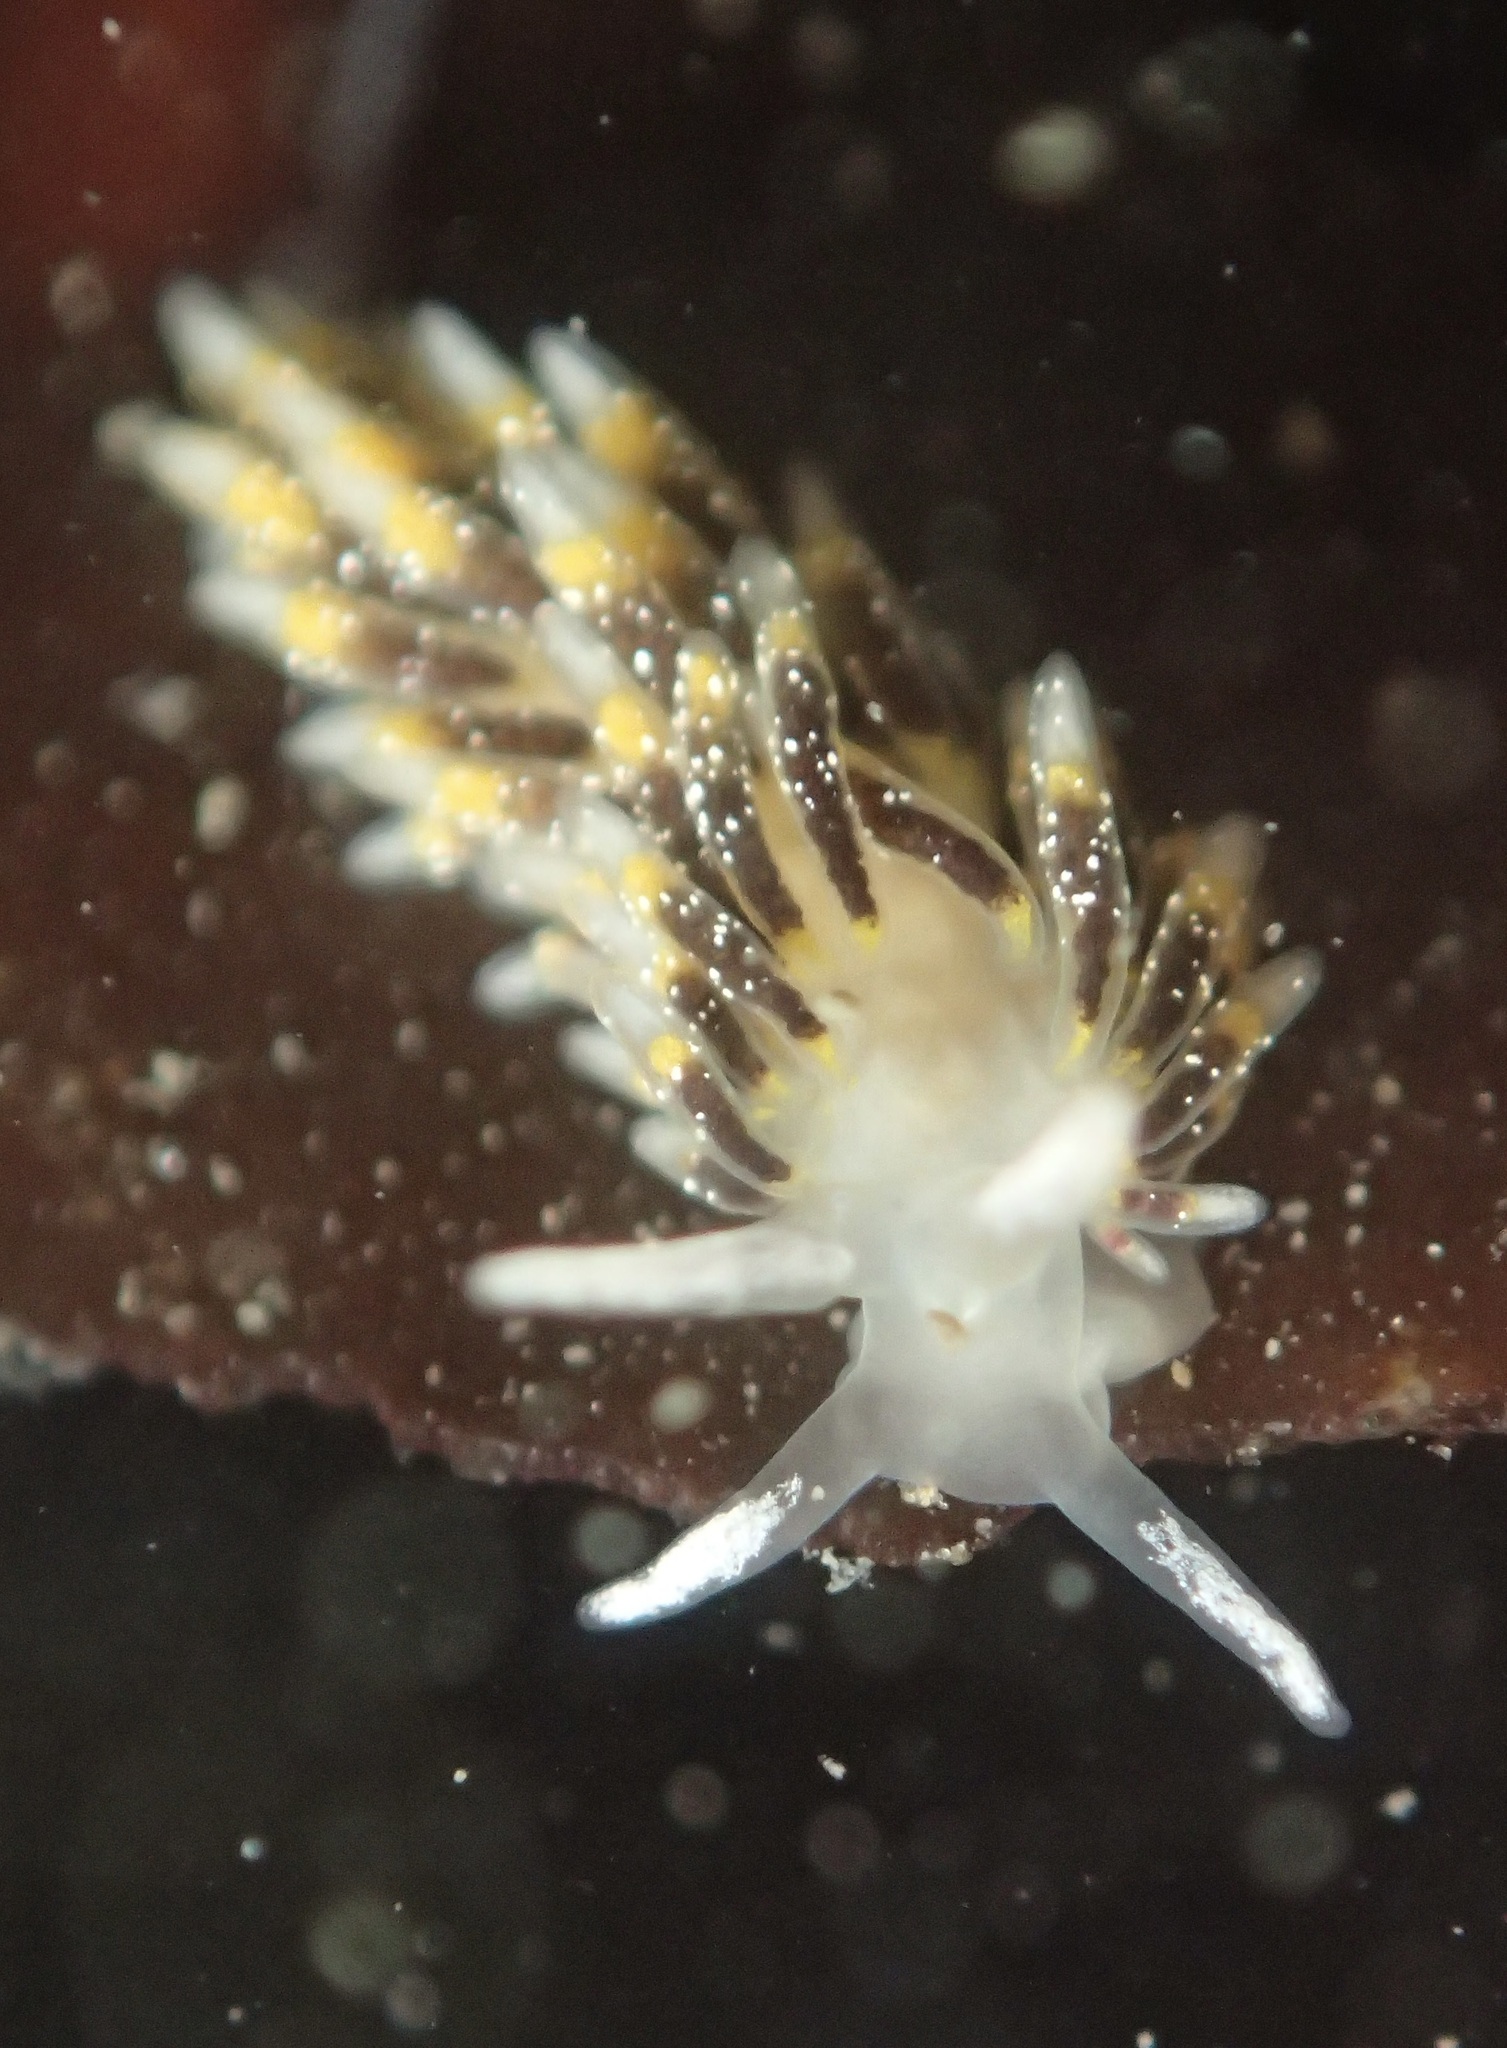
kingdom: Animalia
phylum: Mollusca
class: Gastropoda
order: Nudibranchia
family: Trinchesiidae
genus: Zelentia
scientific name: Zelentia fulgens
